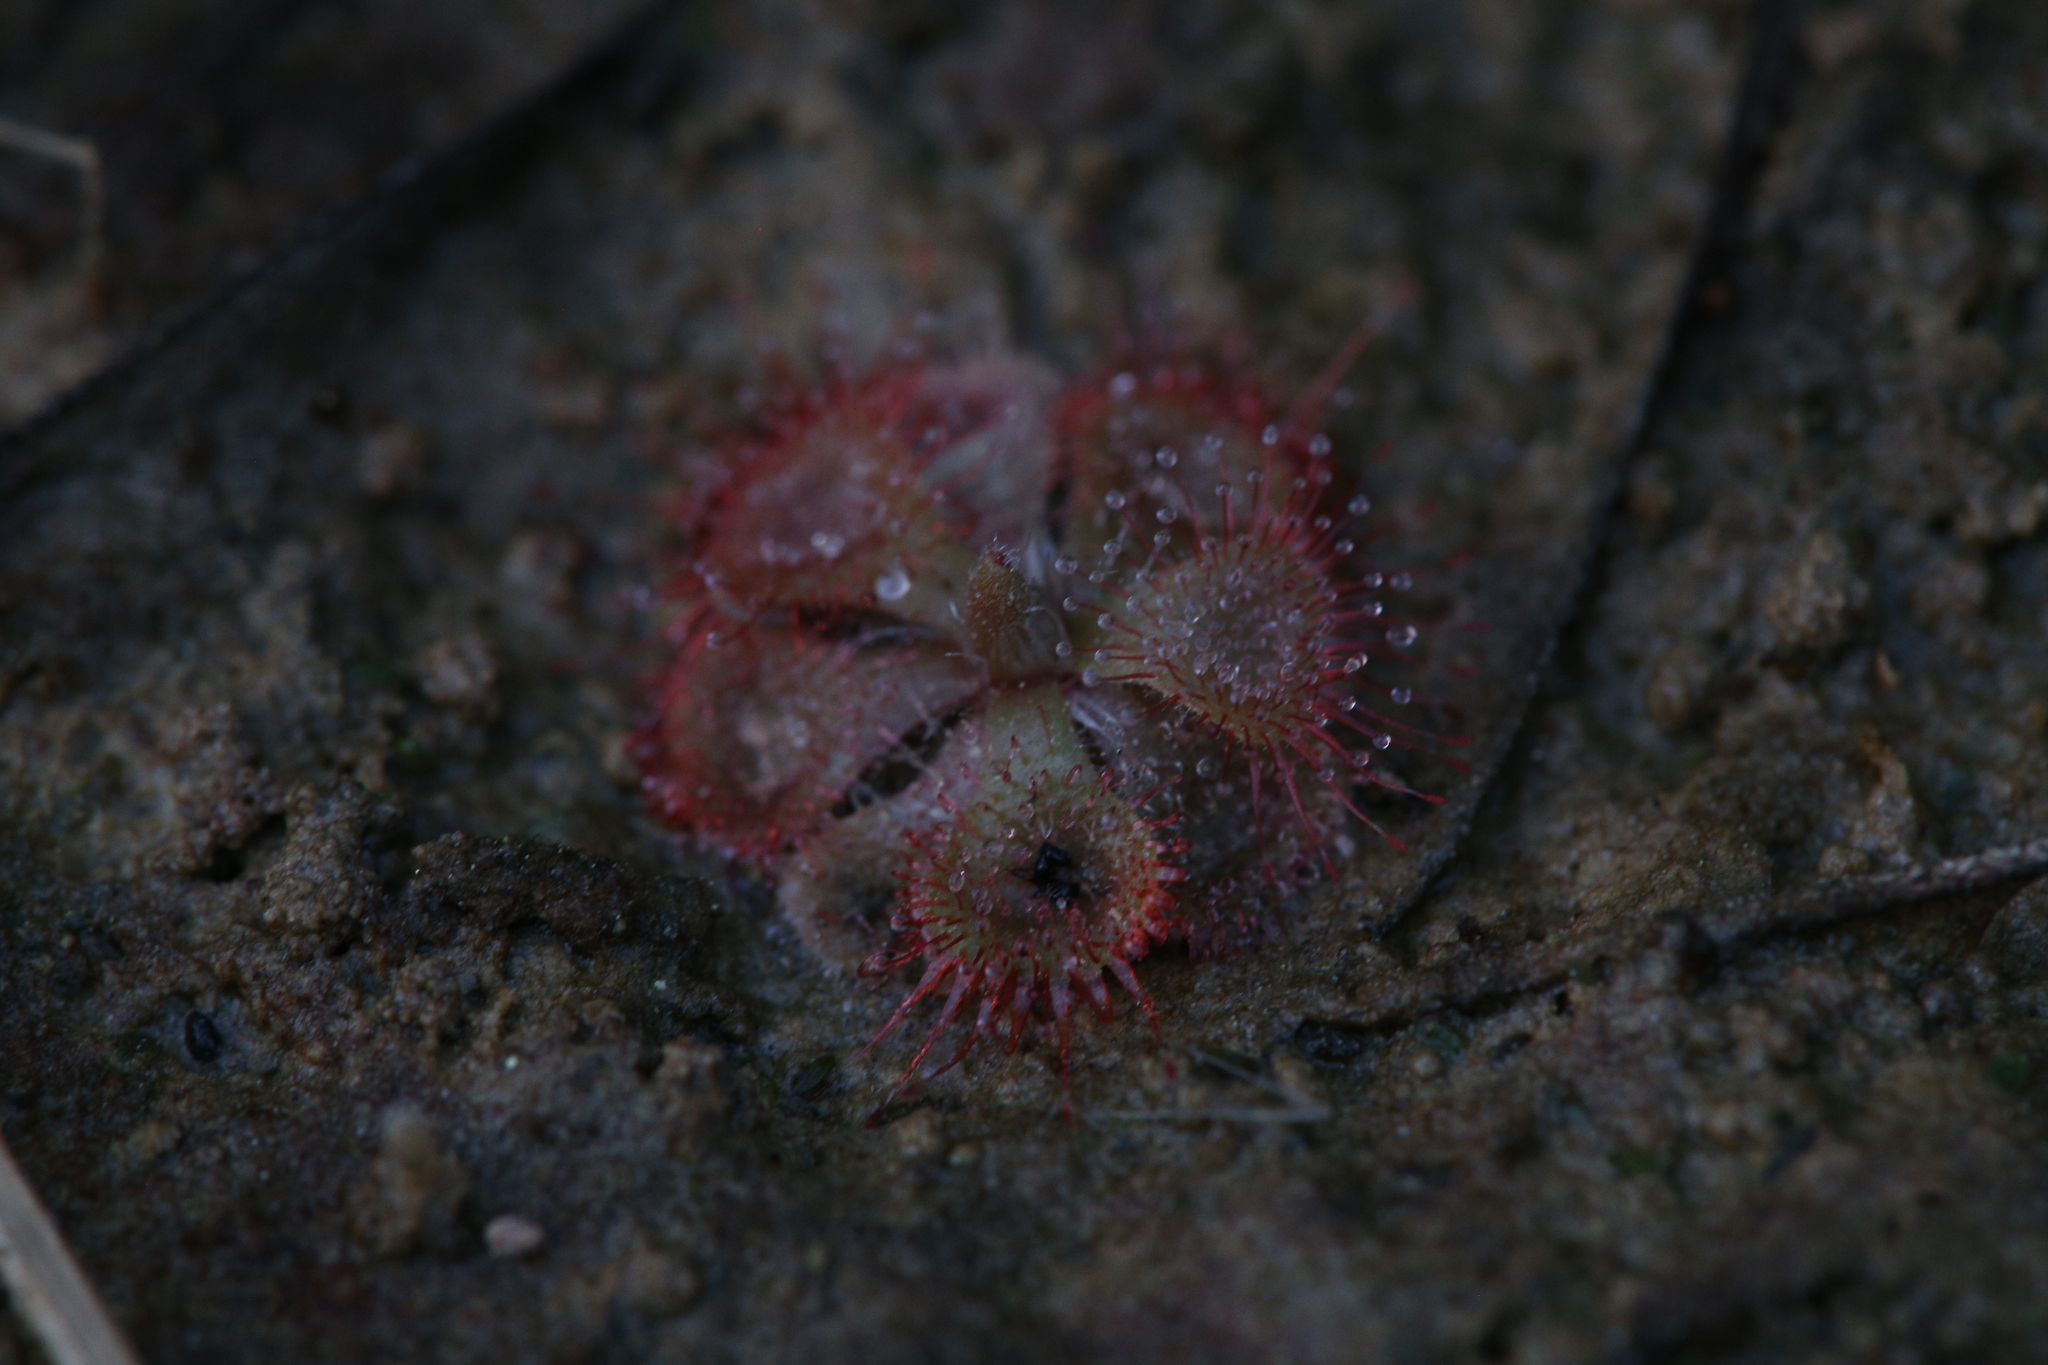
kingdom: Plantae
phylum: Tracheophyta
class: Magnoliopsida
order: Caryophyllales
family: Droseraceae
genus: Drosera
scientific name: Drosera spatulata
